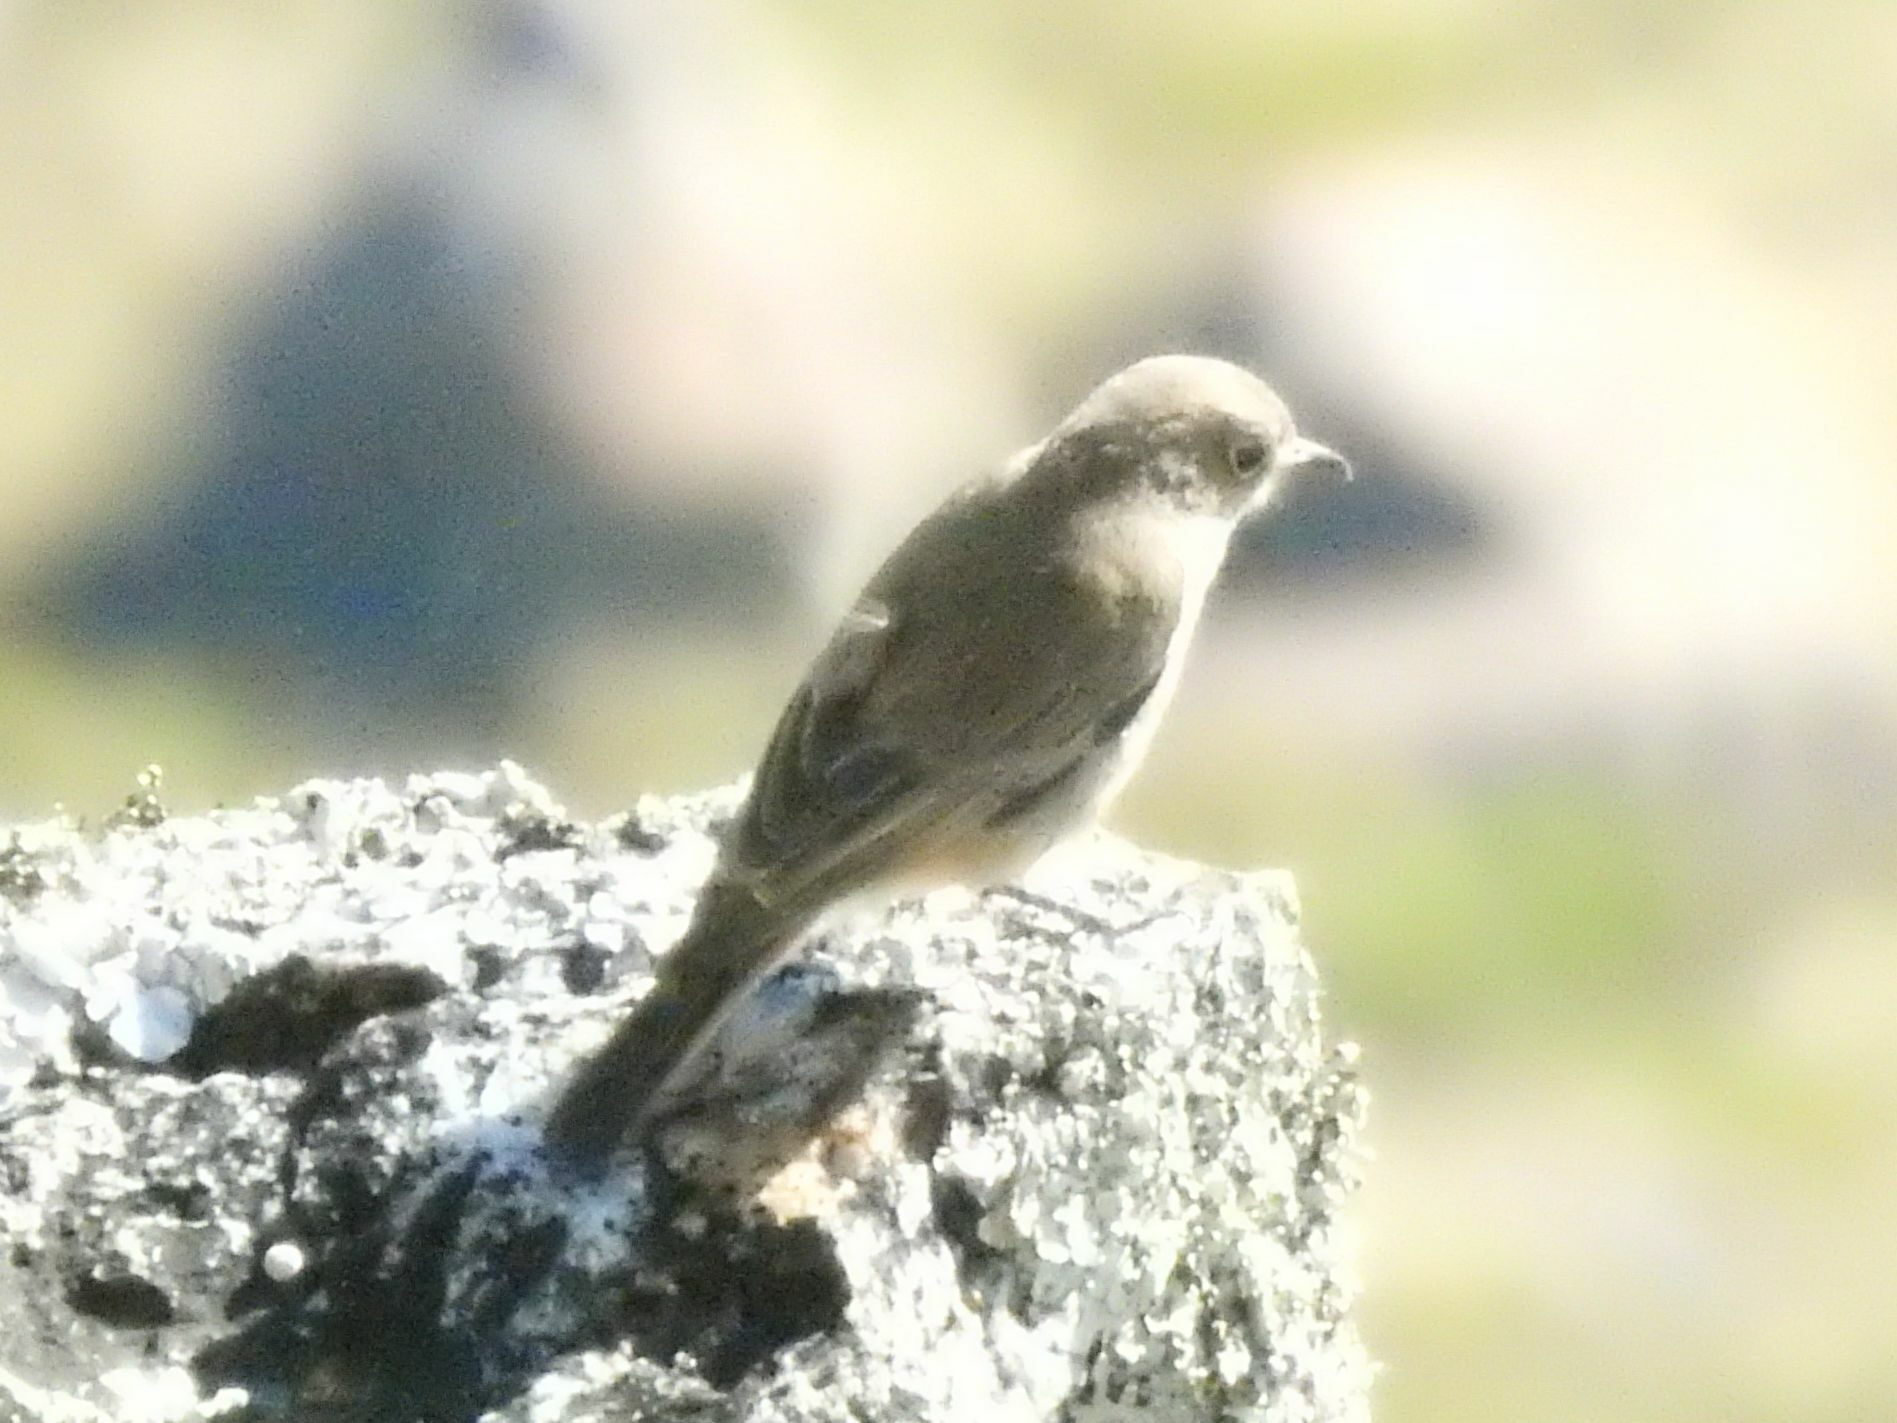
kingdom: Animalia
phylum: Chordata
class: Aves
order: Passeriformes
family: Muscicapidae
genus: Oenanthe
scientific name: Oenanthe familiaris
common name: Familiar chat
